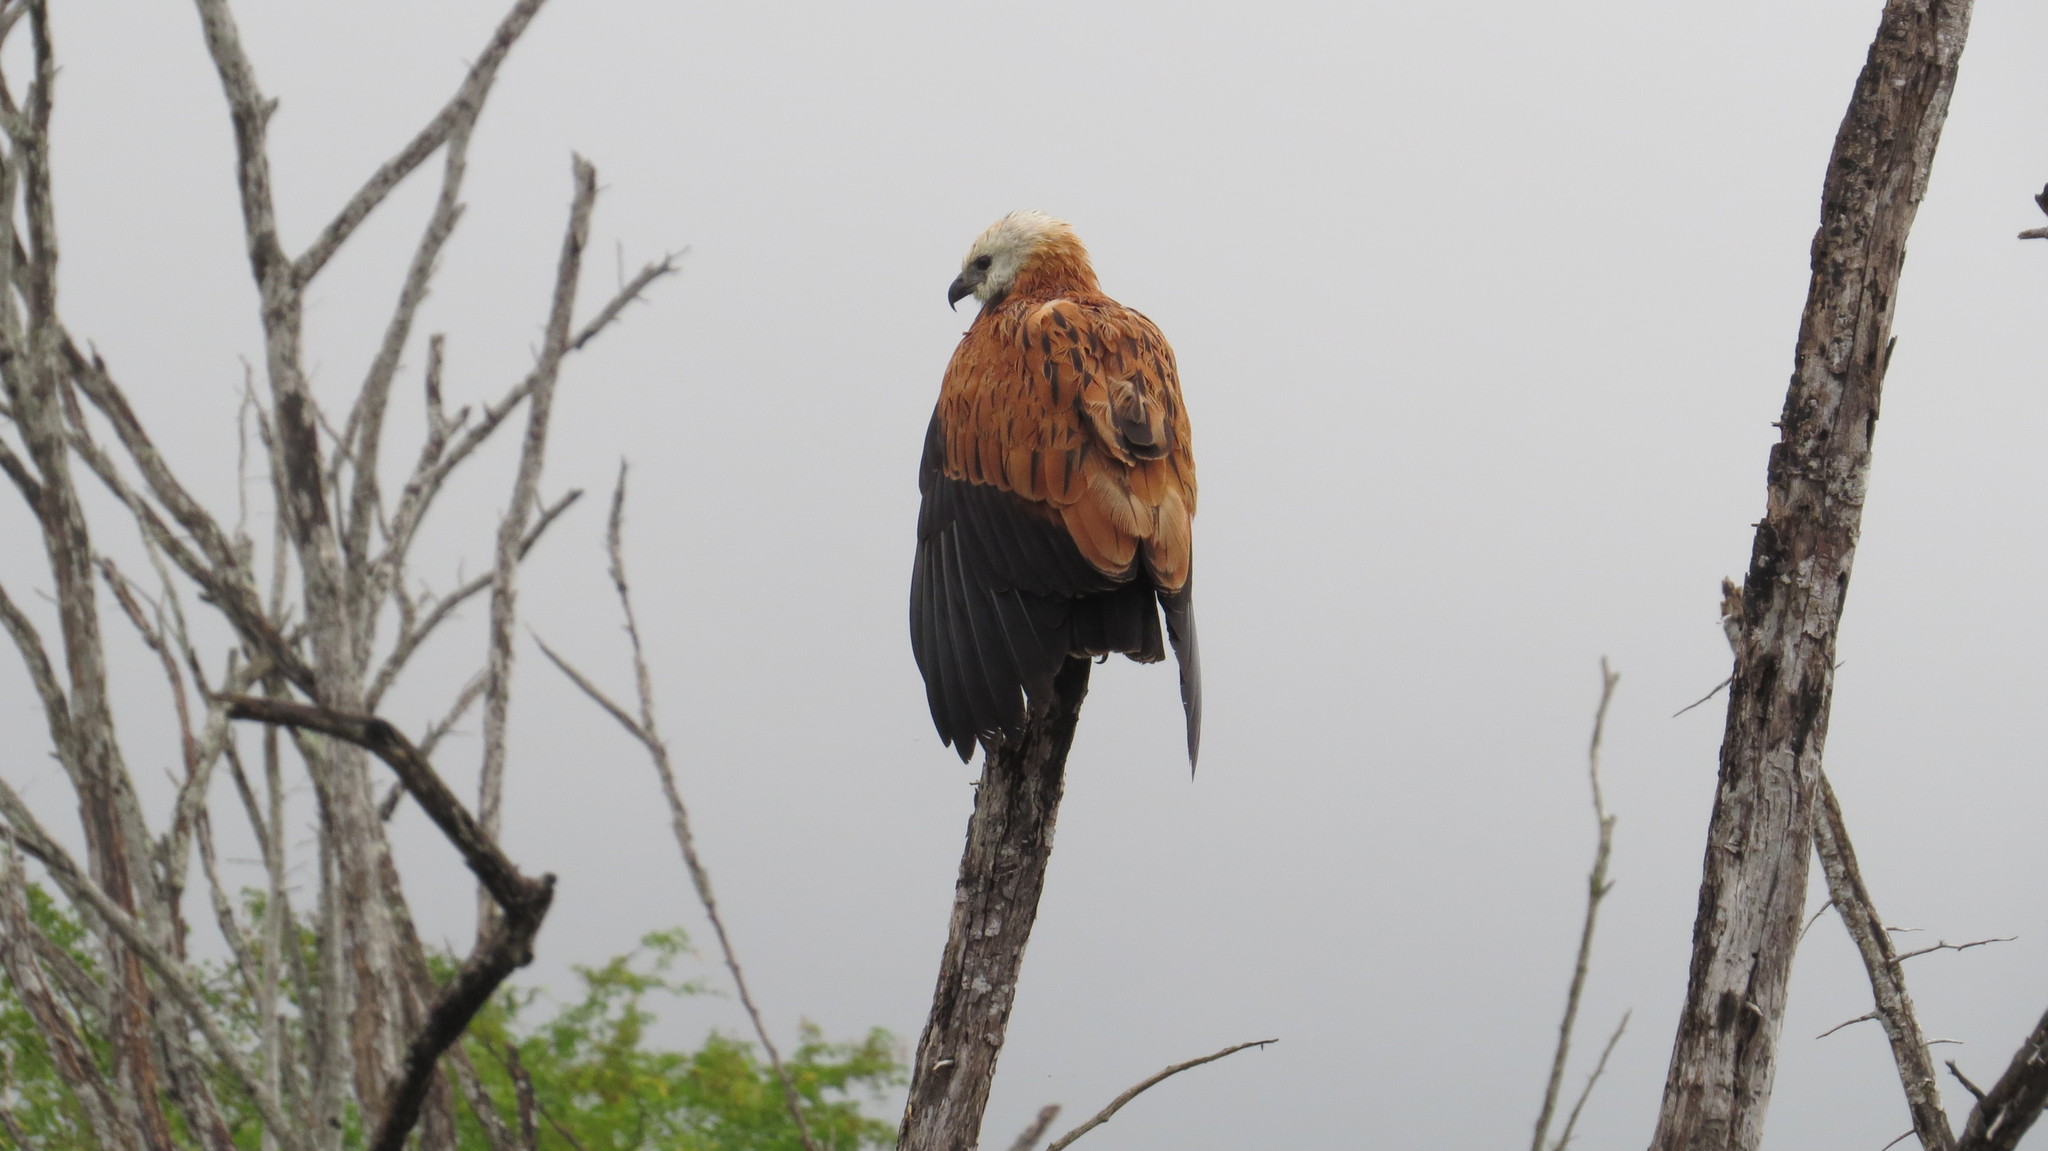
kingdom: Animalia
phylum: Chordata
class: Aves
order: Accipitriformes
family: Accipitridae
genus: Busarellus
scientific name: Busarellus nigricollis
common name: Black-collared hawk
